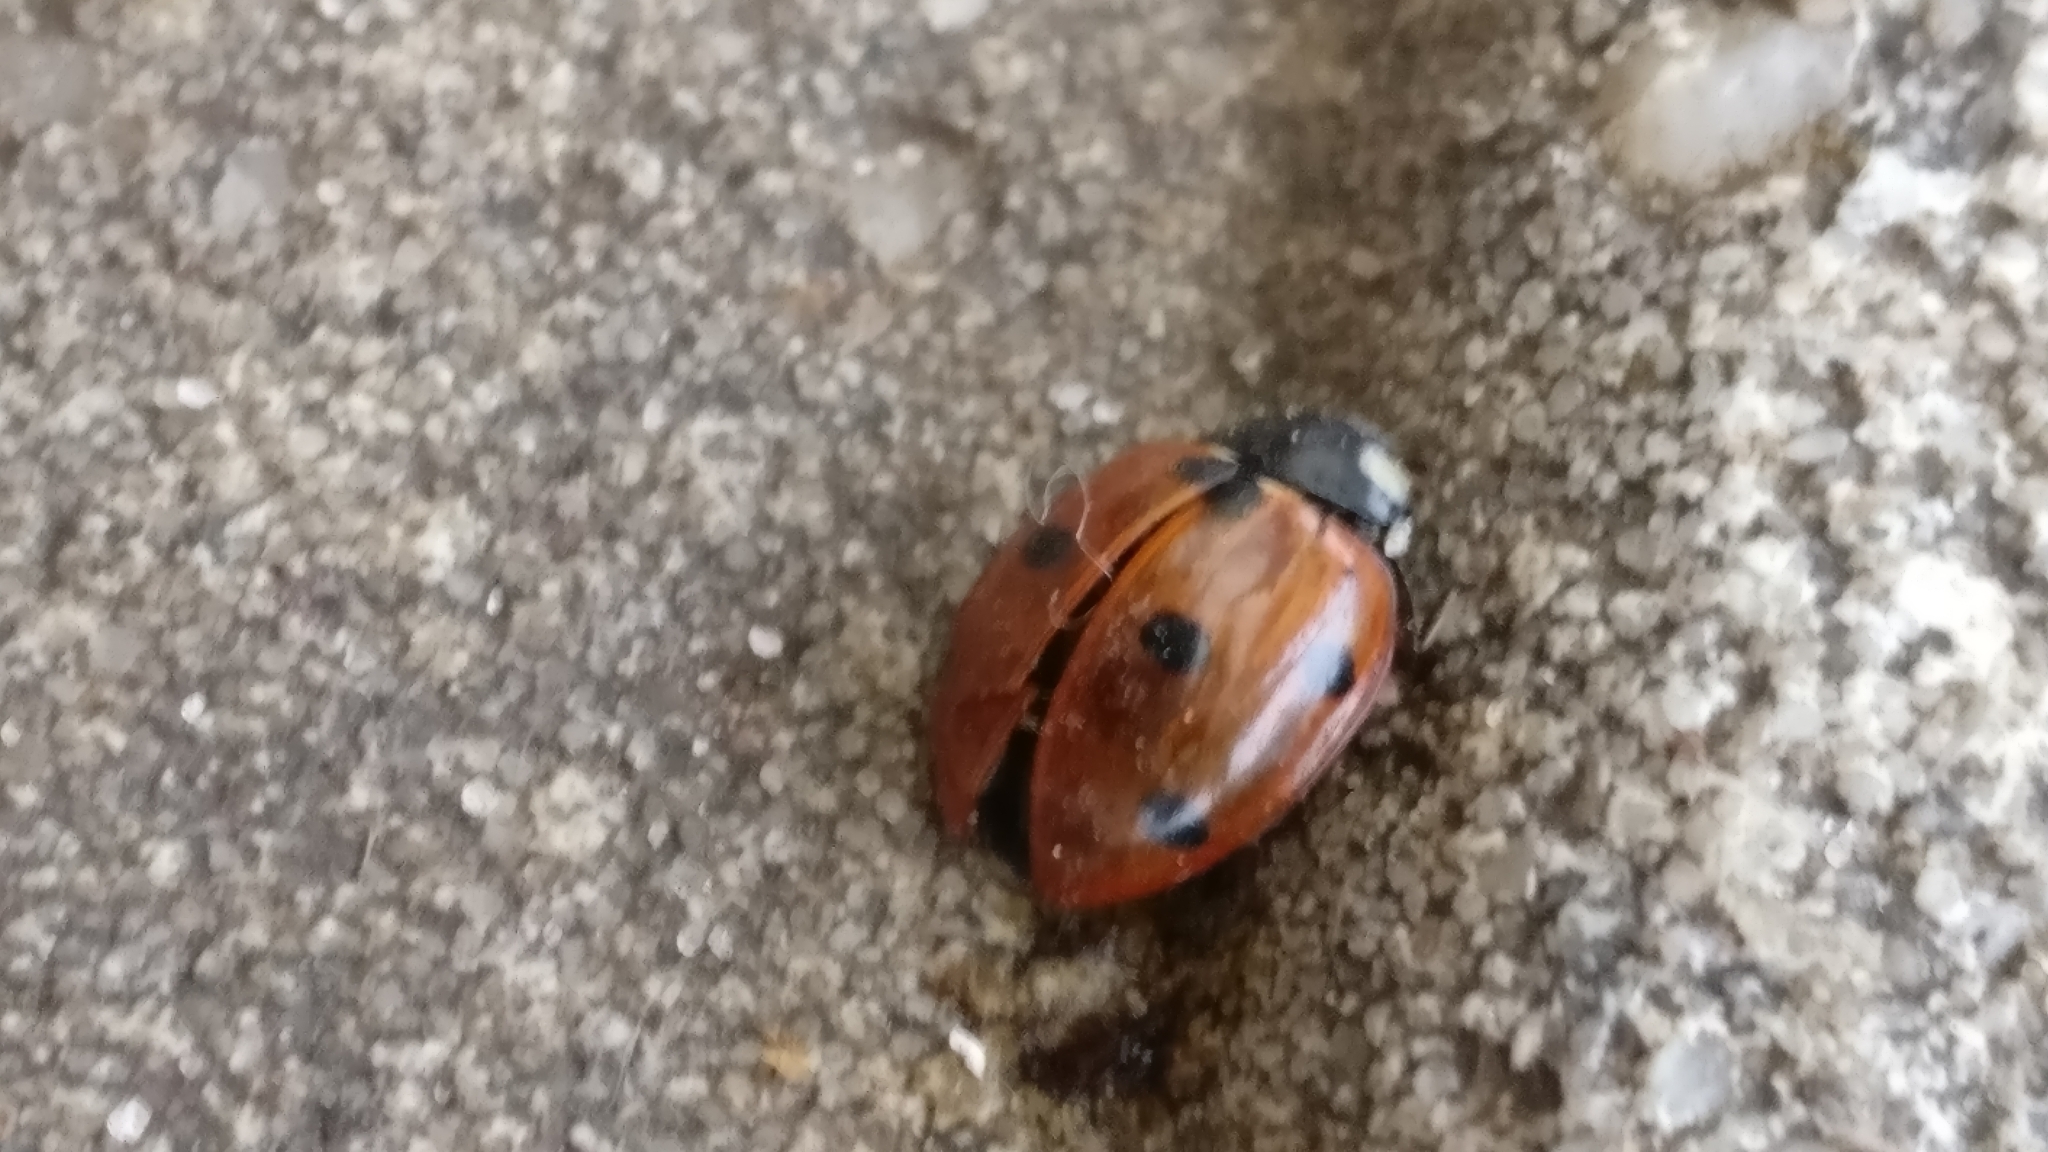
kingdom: Animalia
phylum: Arthropoda
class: Insecta
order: Coleoptera
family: Coccinellidae
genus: Coccinella
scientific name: Coccinella septempunctata
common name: Sevenspotted lady beetle
